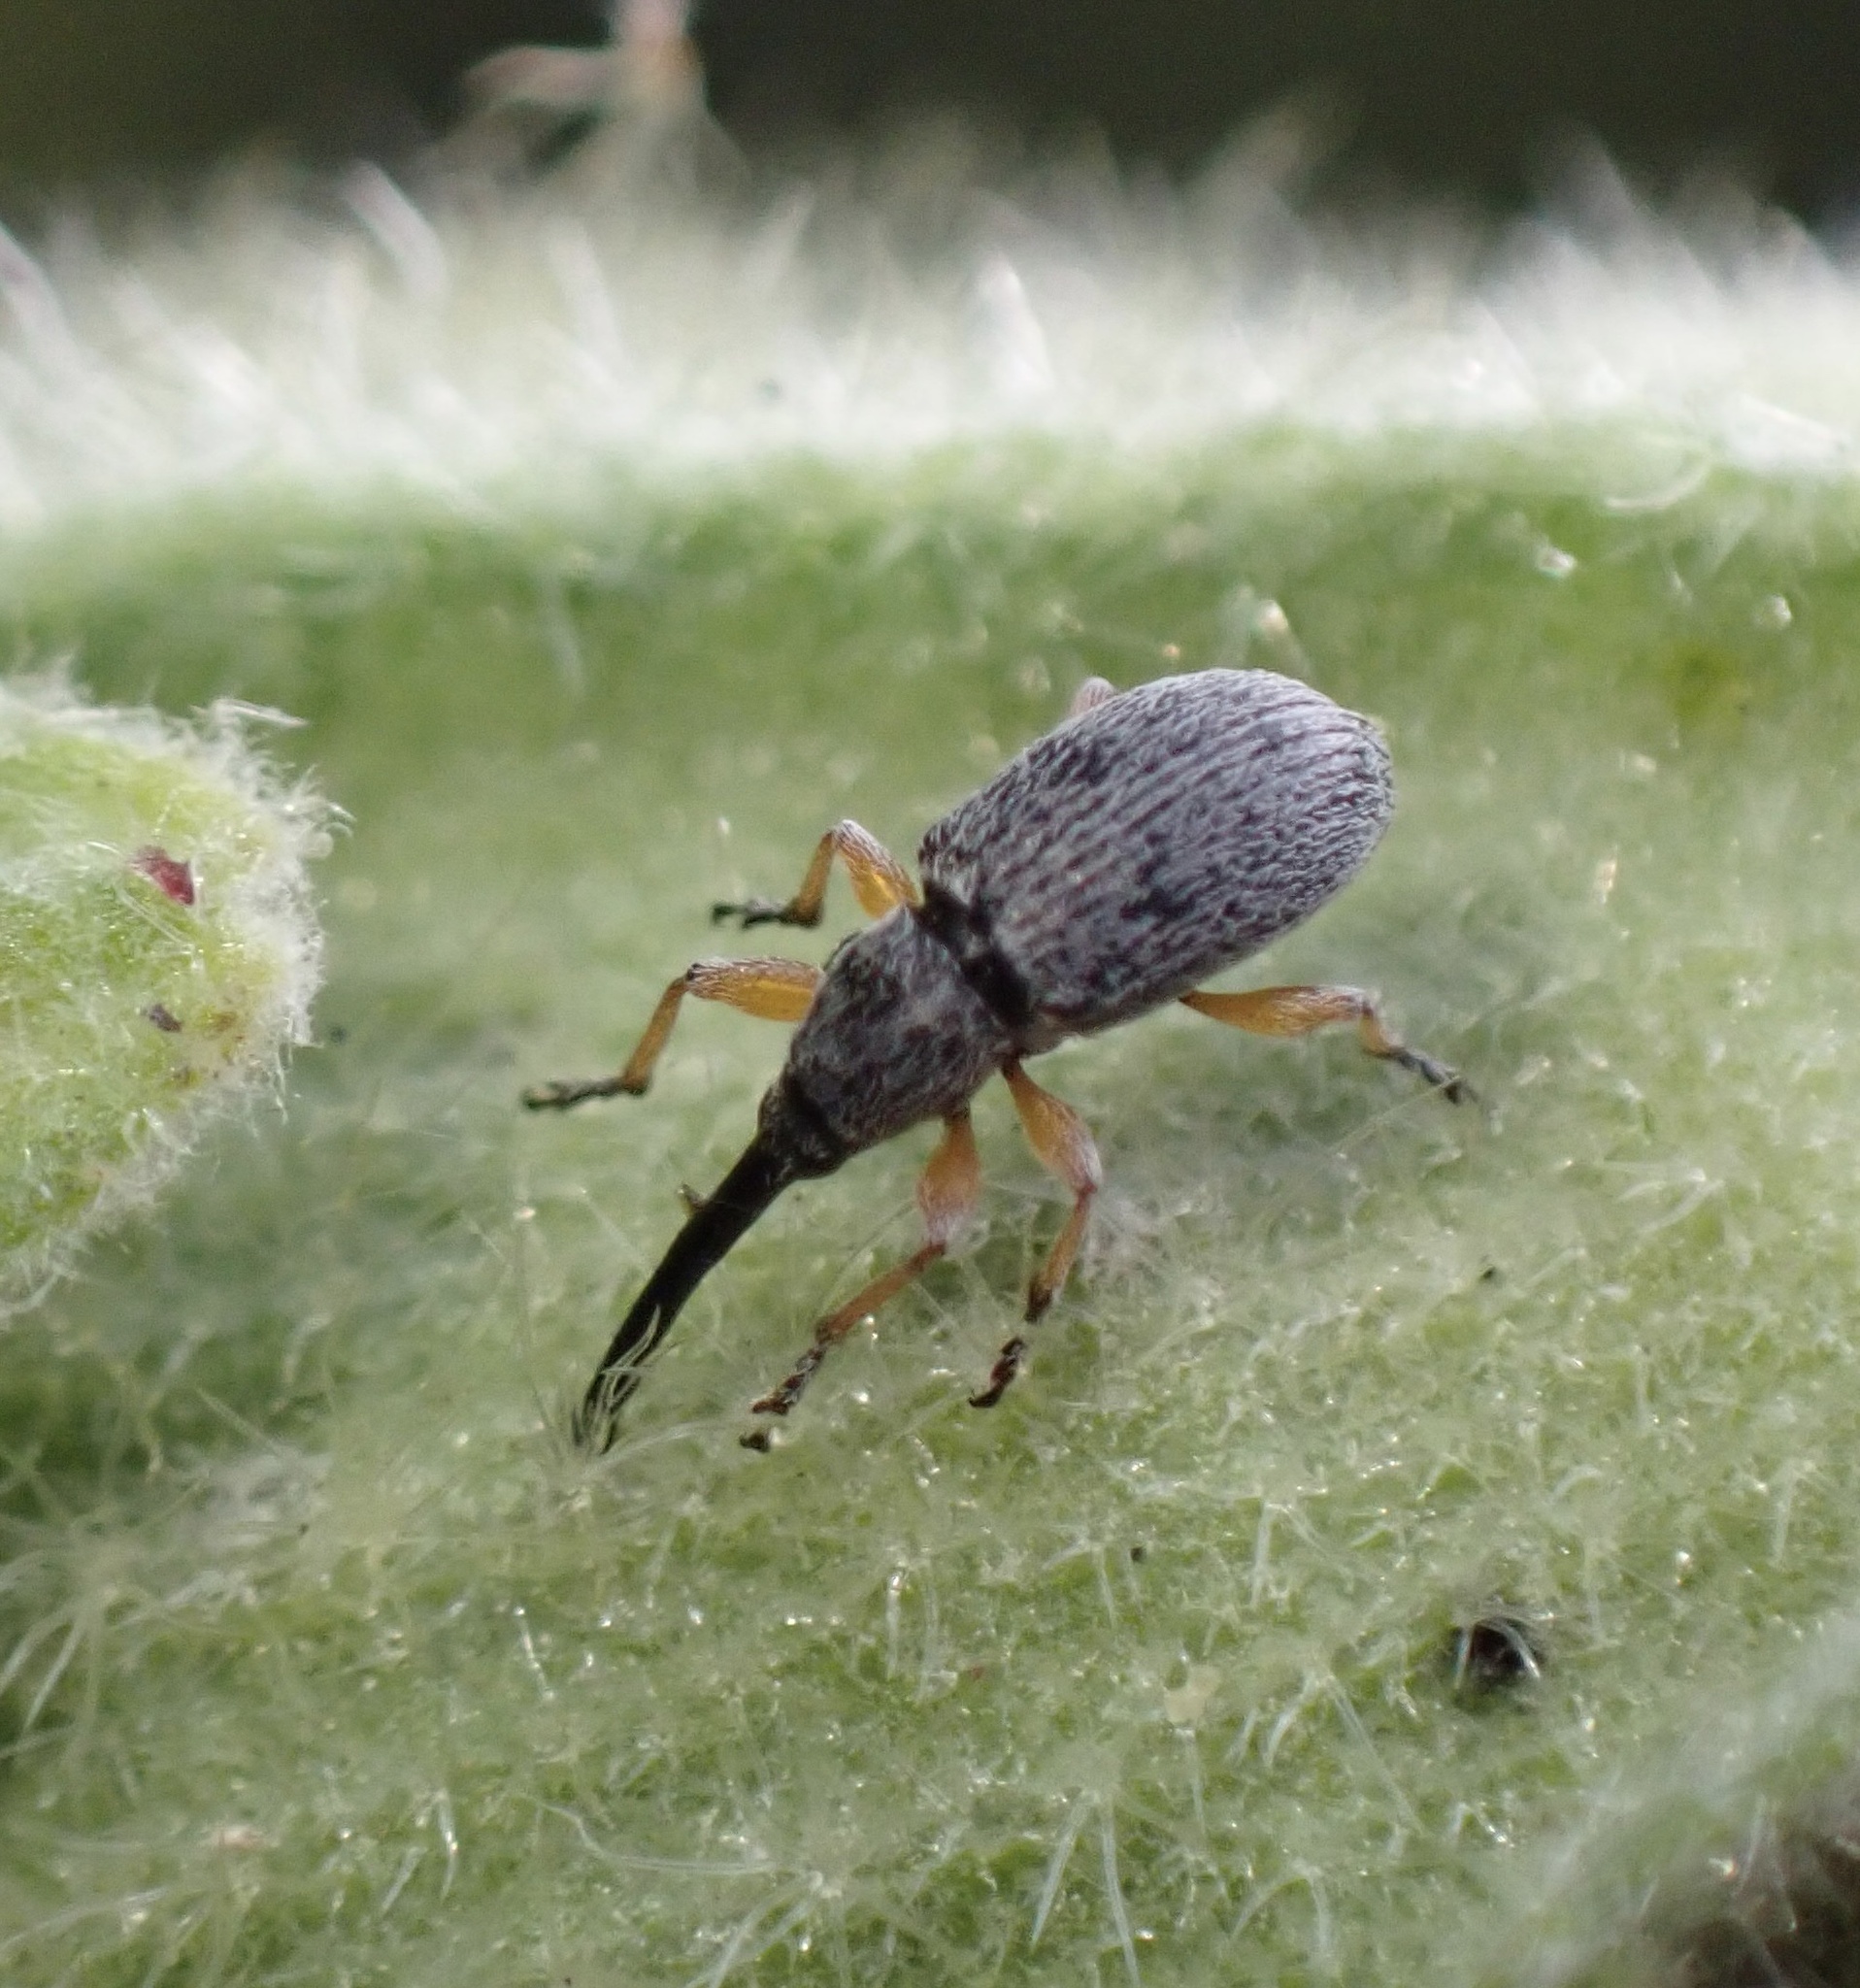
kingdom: Animalia
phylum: Arthropoda
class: Insecta
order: Coleoptera
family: Brentidae
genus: Rhopalapion
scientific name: Rhopalapion longirostre
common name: Hollyhock weevil
